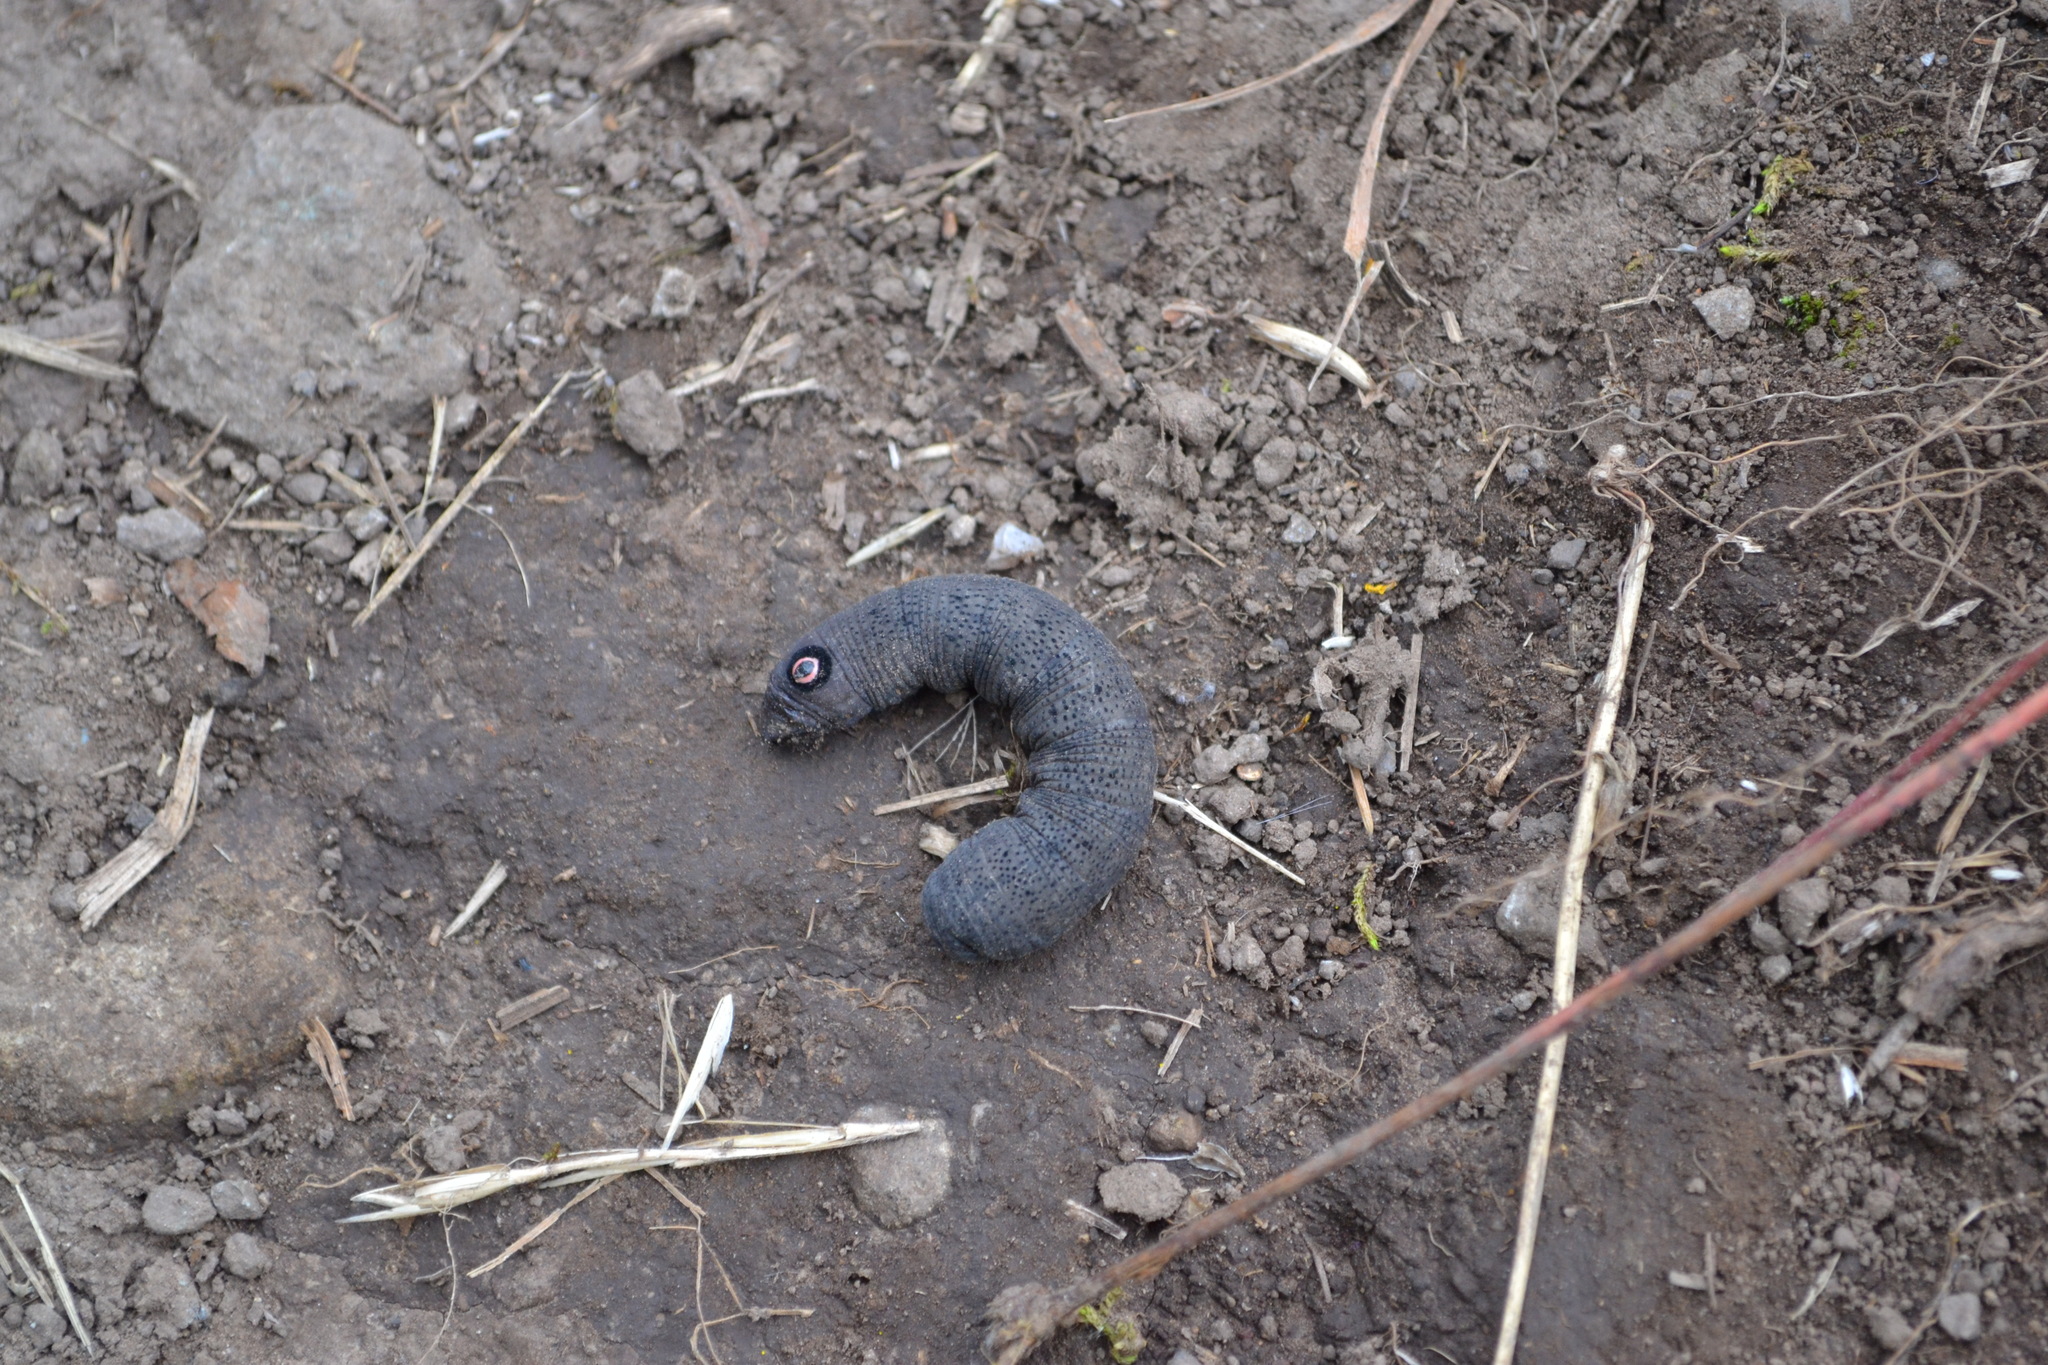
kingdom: Animalia
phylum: Arthropoda
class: Insecta
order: Lepidoptera
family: Sphingidae
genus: Proserpinus
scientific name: Proserpinus flavofasciata
